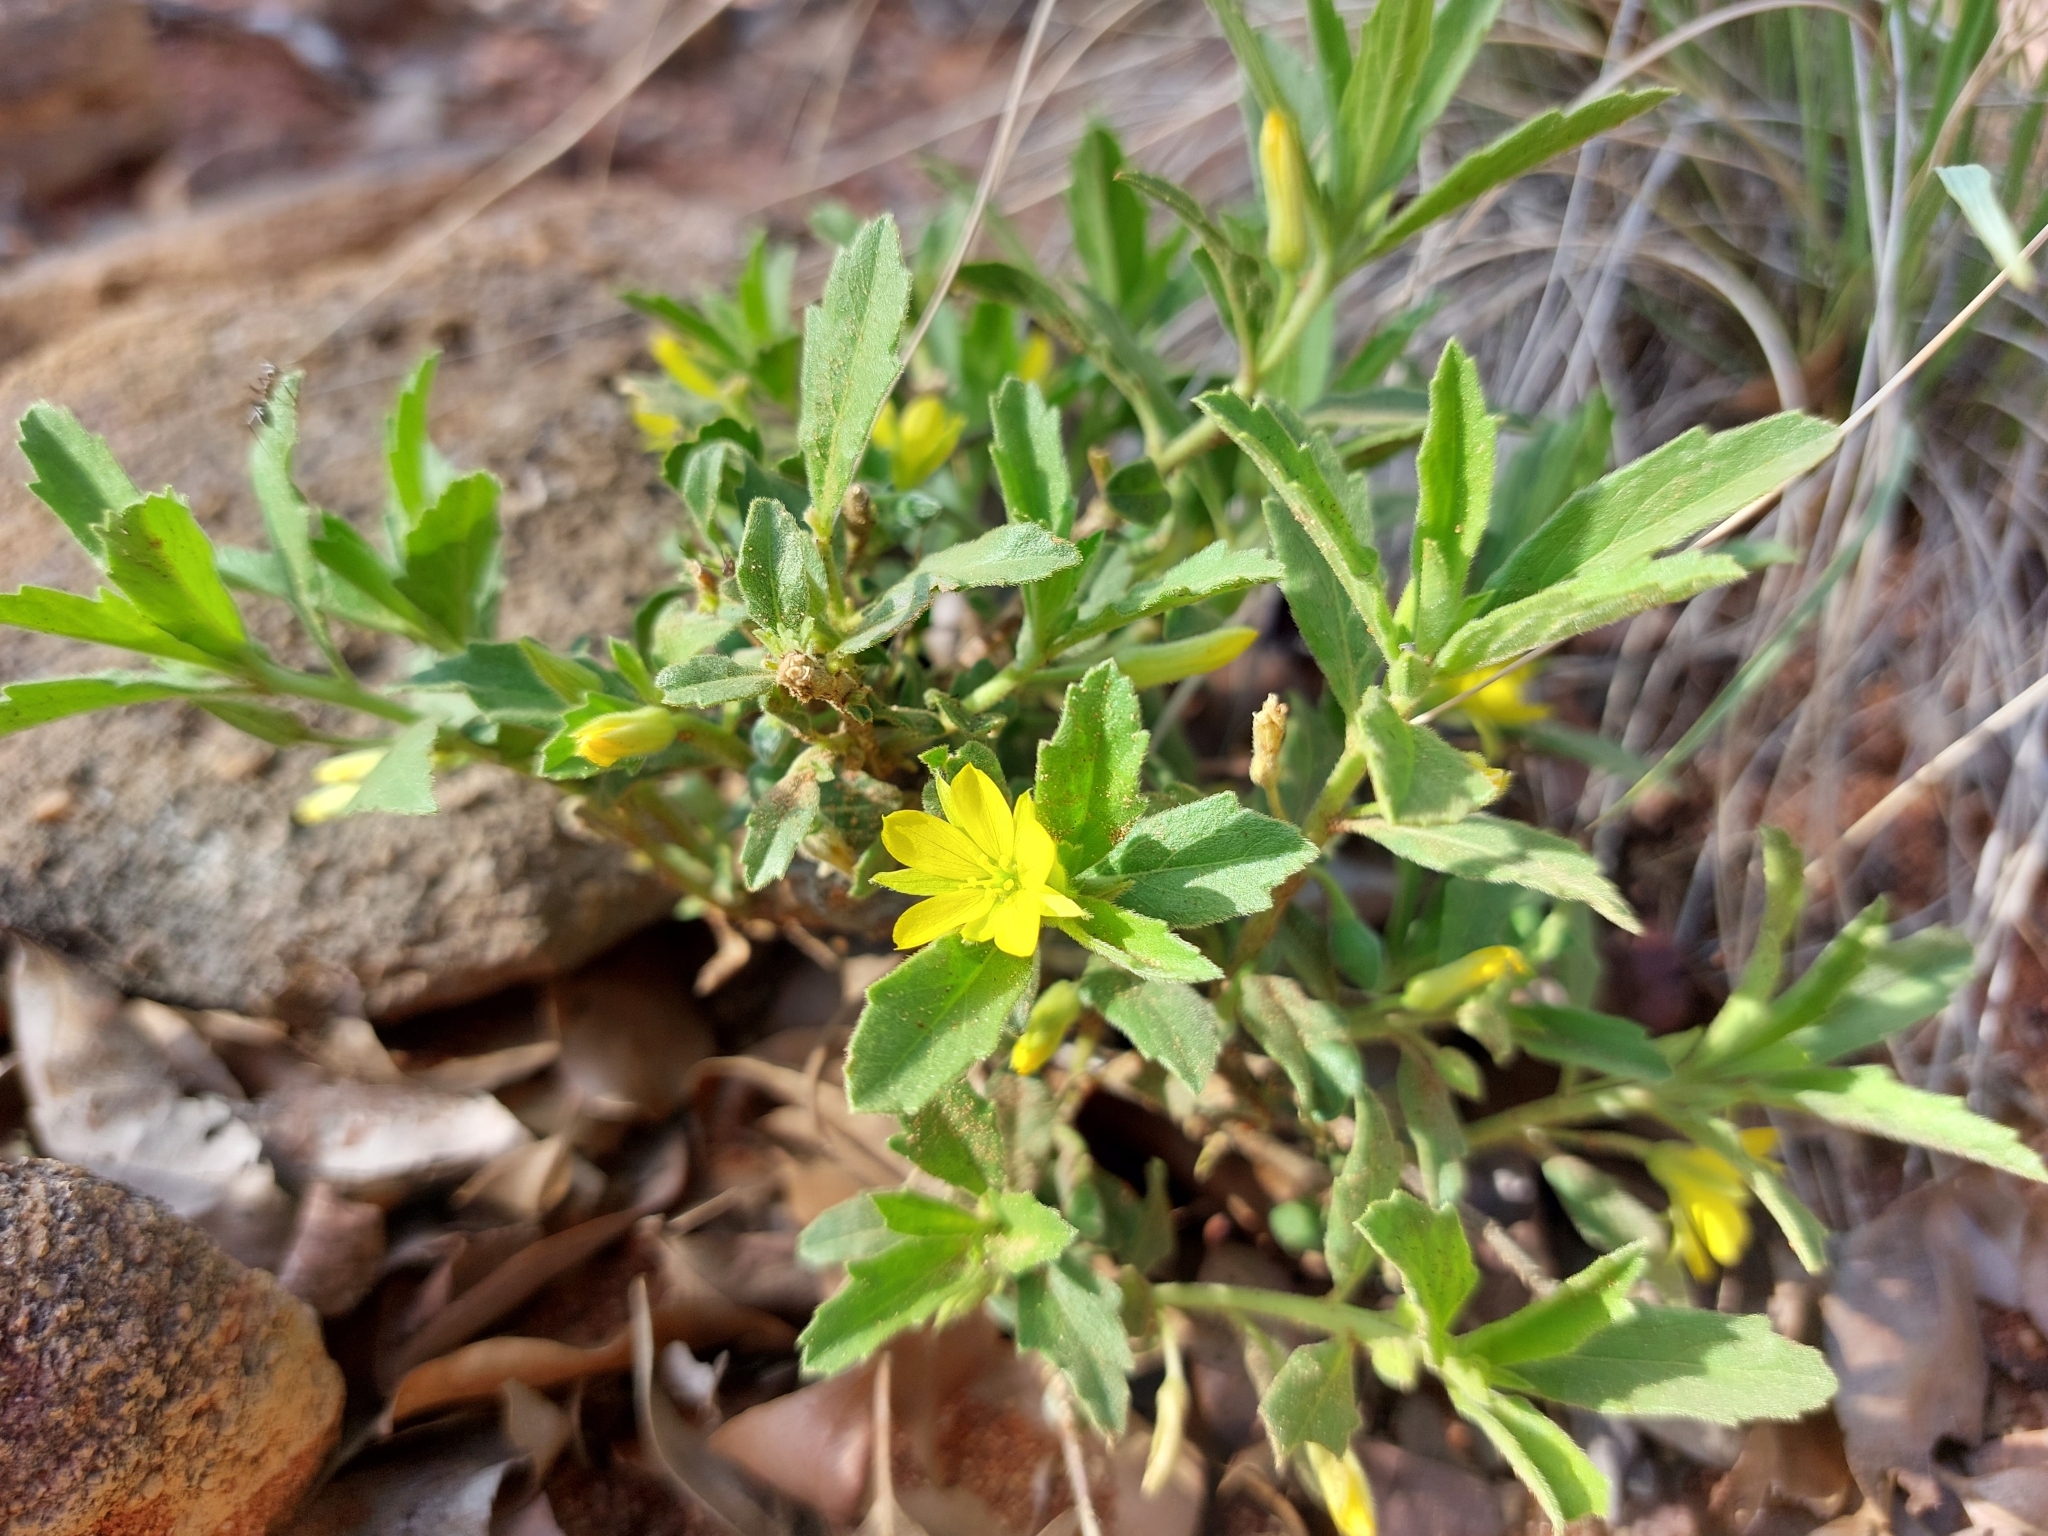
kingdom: Plantae
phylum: Tracheophyta
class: Magnoliopsida
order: Malpighiales
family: Turneraceae
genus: Afroqueta
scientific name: Afroqueta capensis
